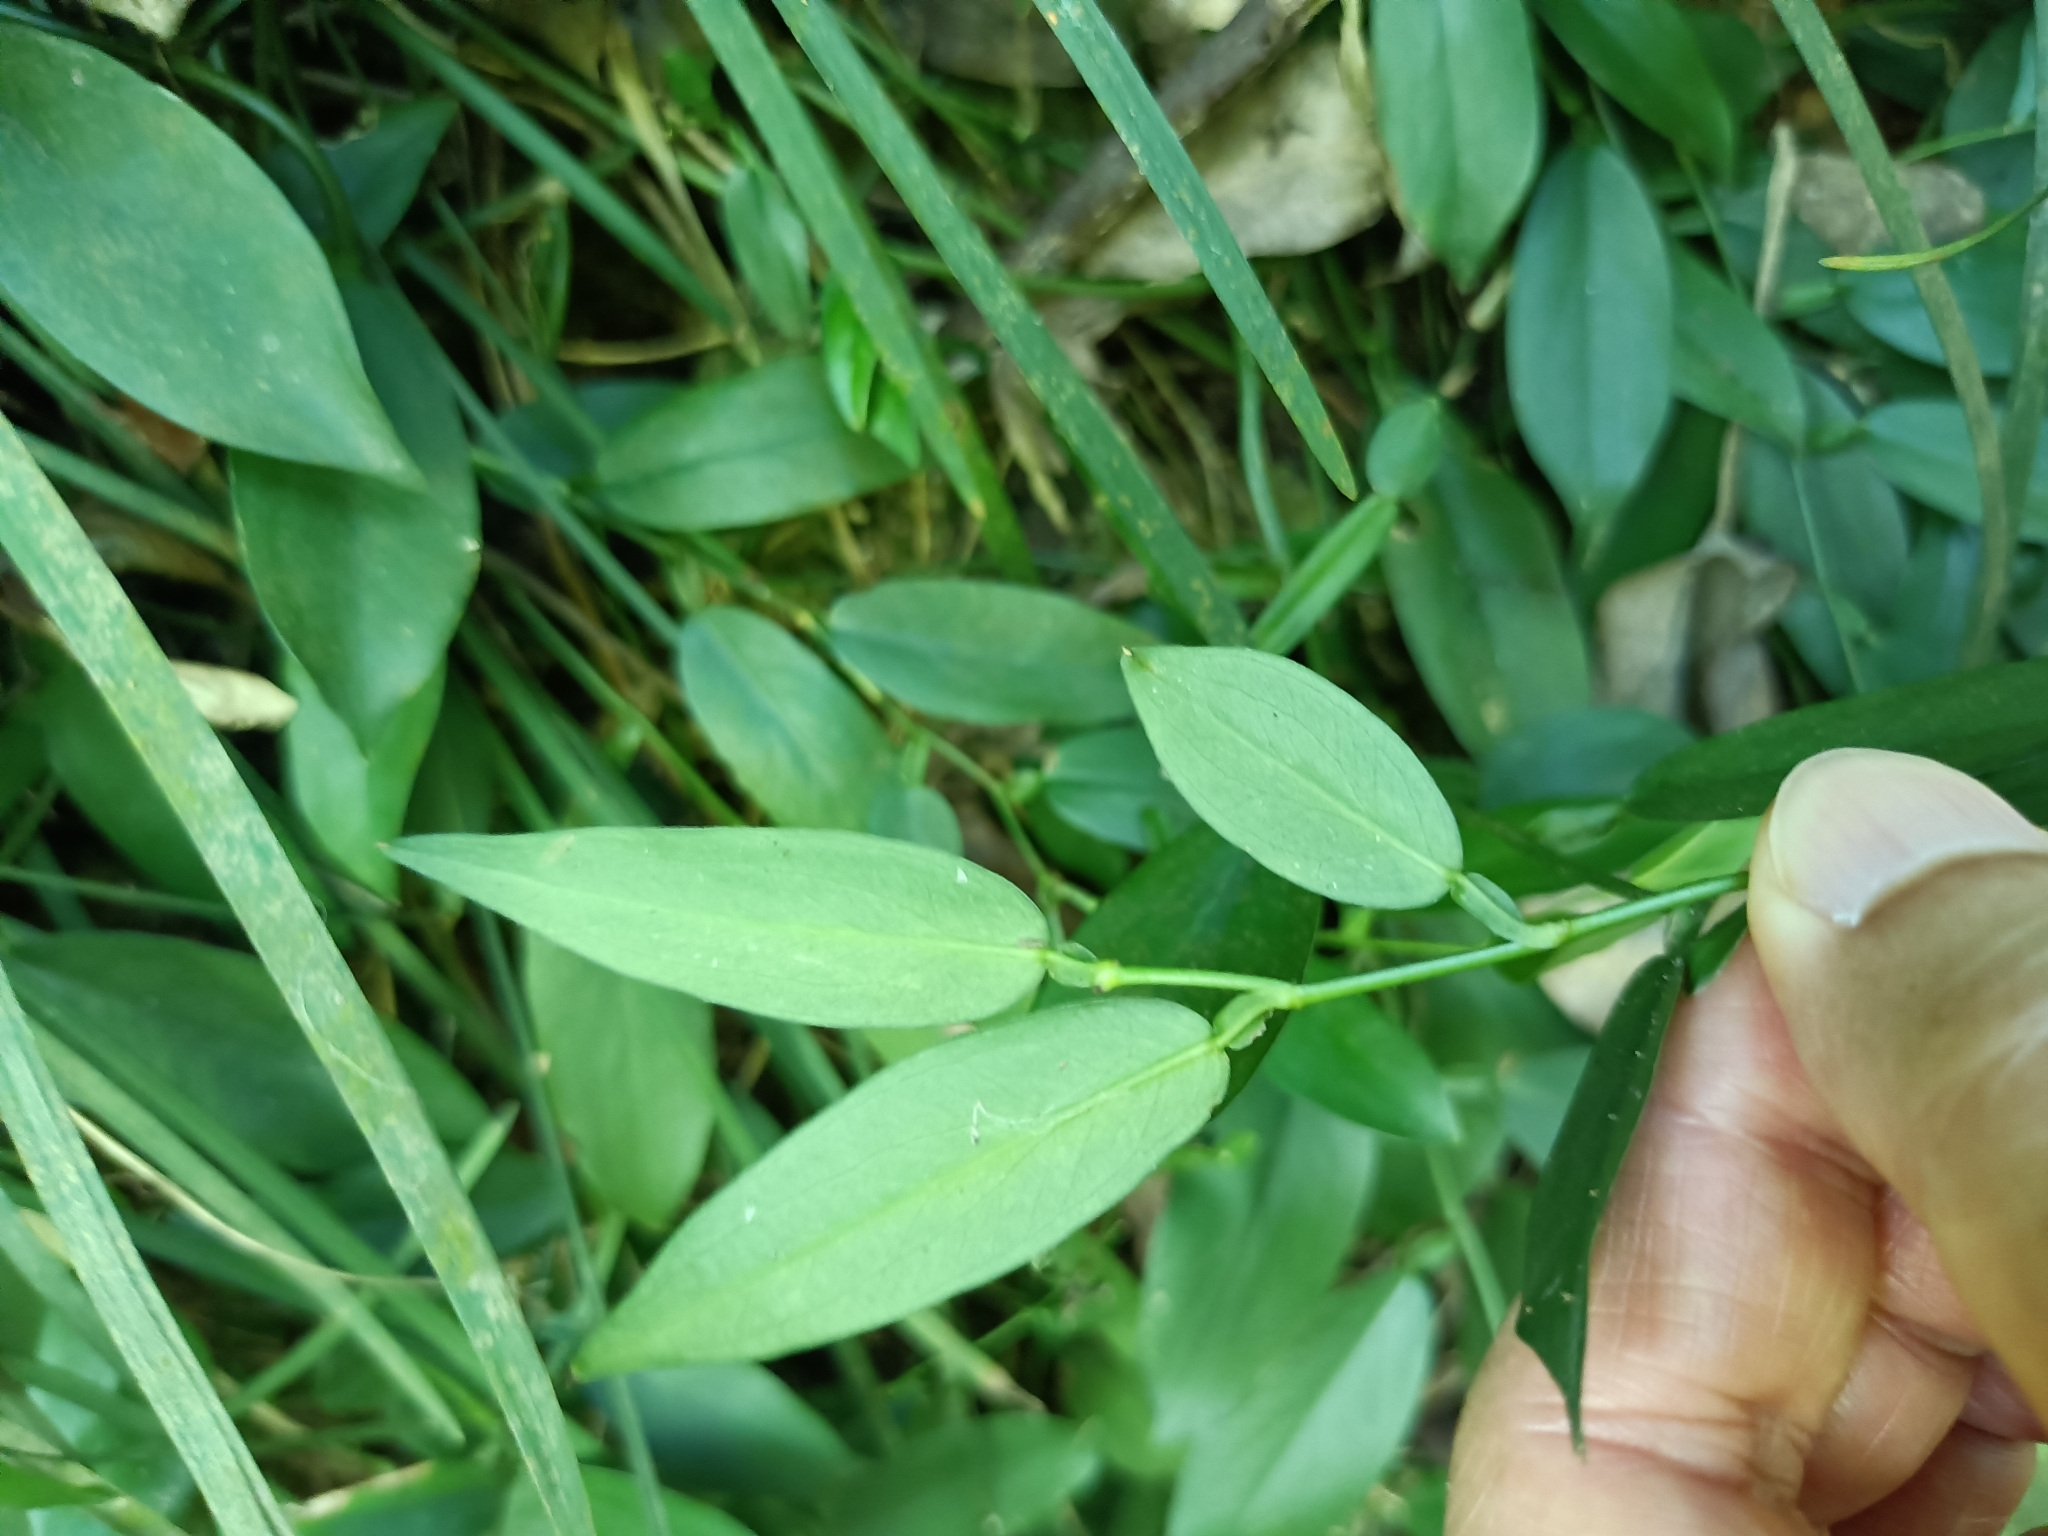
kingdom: Plantae
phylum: Tracheophyta
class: Liliopsida
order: Alismatales
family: Araceae
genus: Pothos
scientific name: Pothos chinensis
